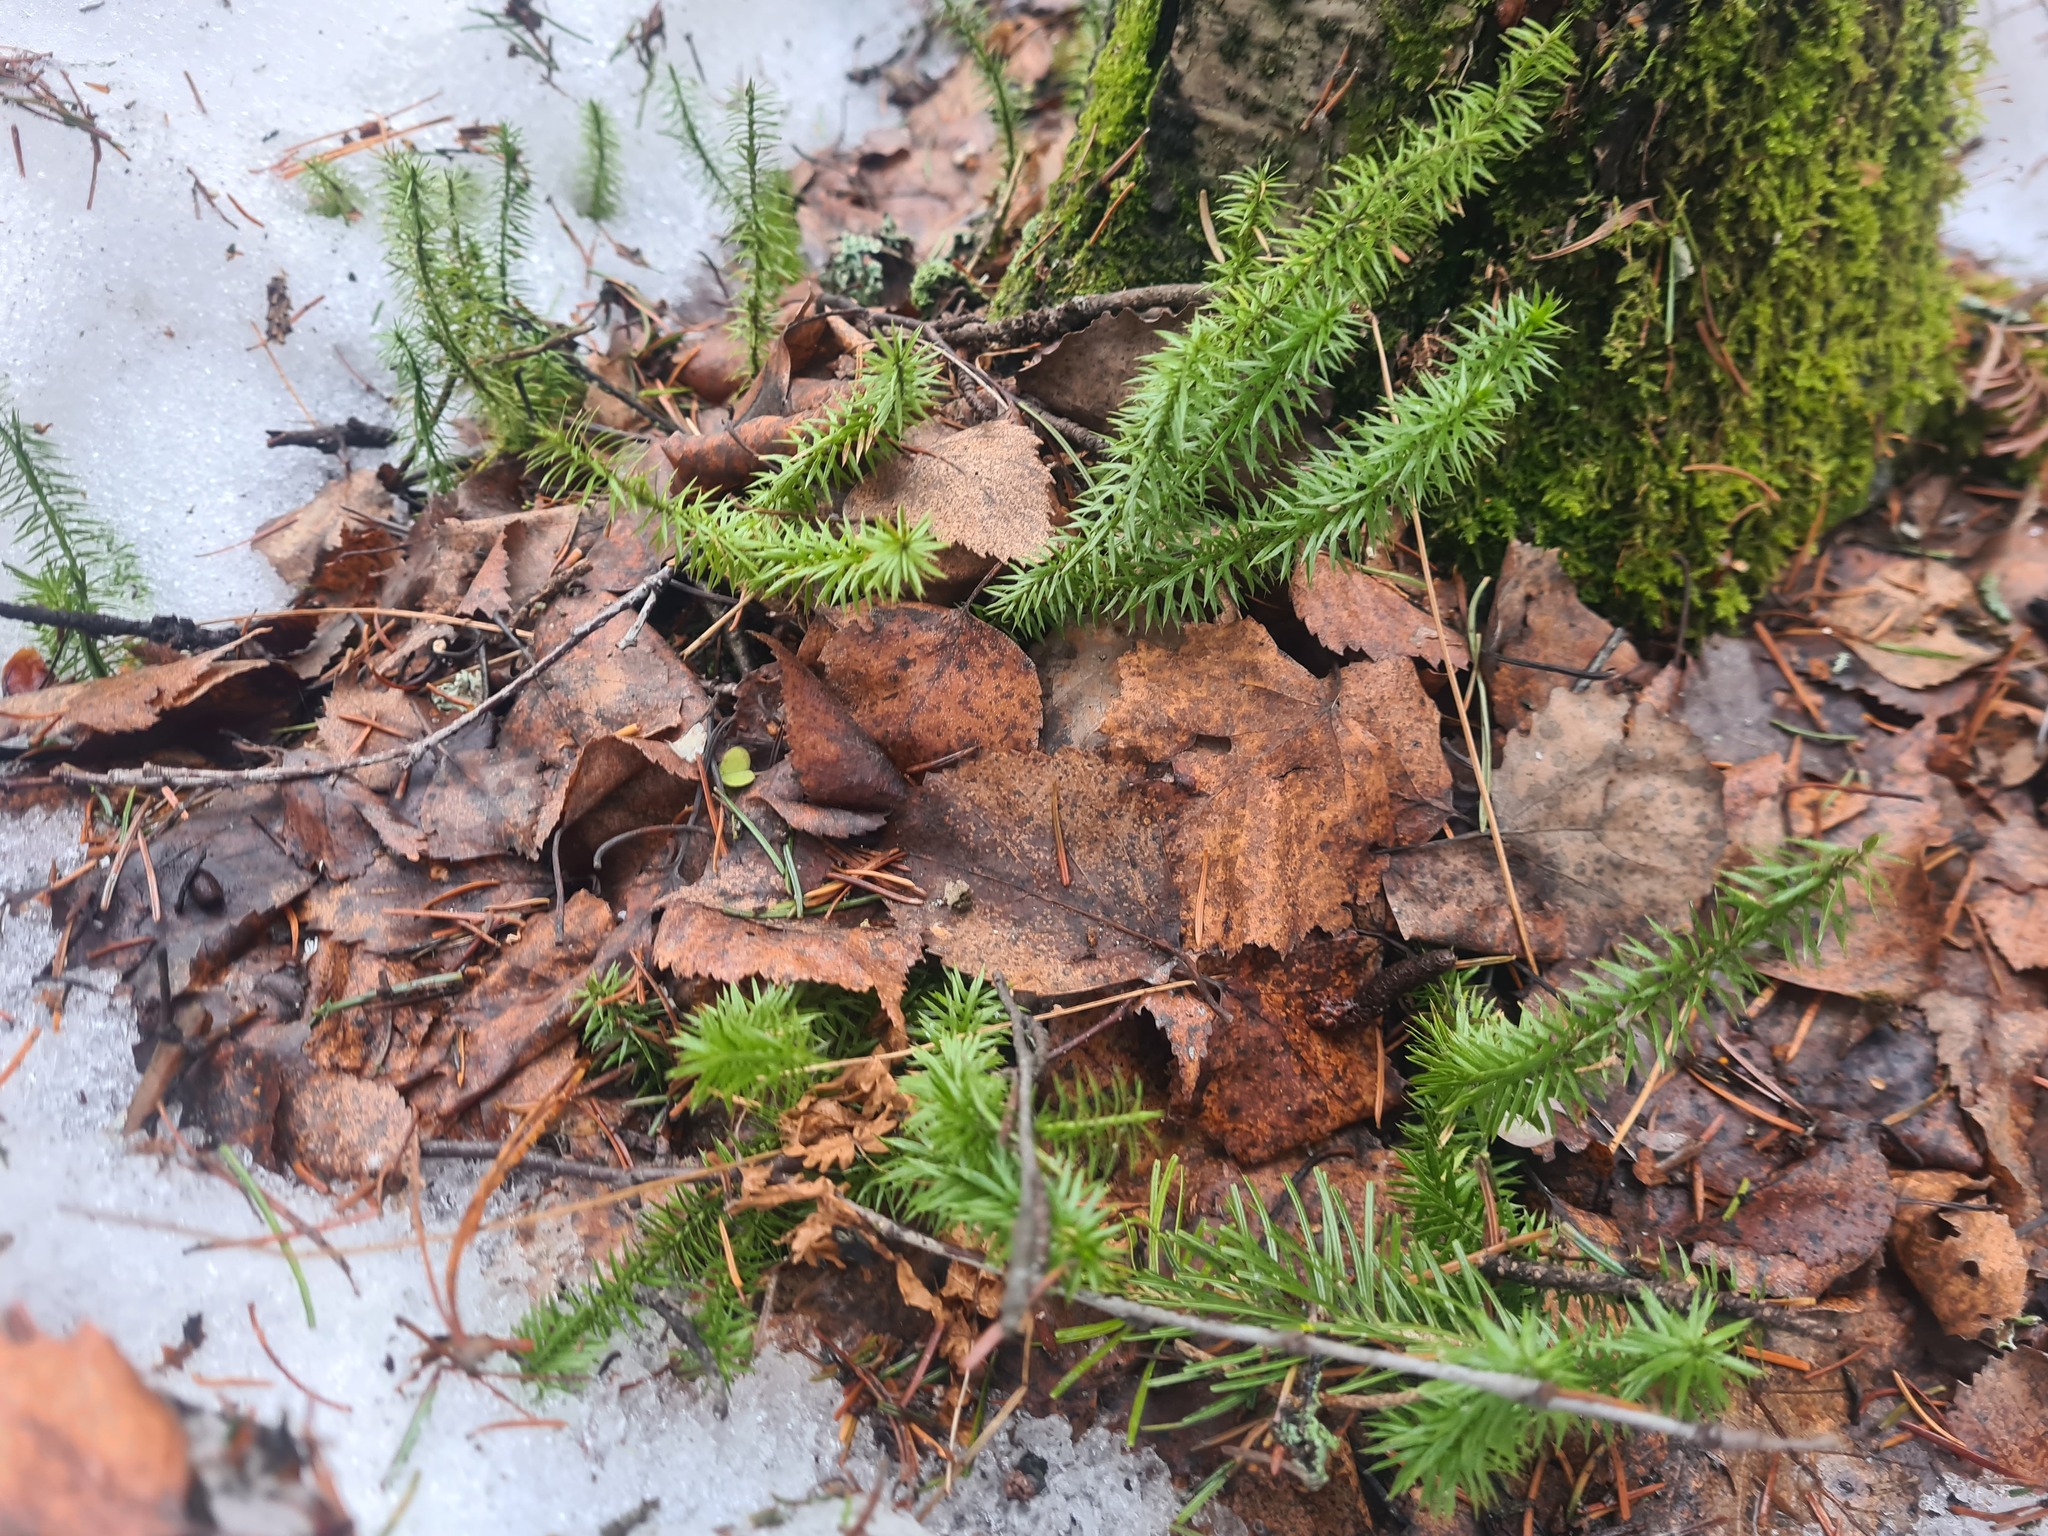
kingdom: Plantae
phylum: Tracheophyta
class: Lycopodiopsida
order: Lycopodiales
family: Lycopodiaceae
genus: Spinulum
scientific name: Spinulum annotinum
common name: Interrupted club-moss
